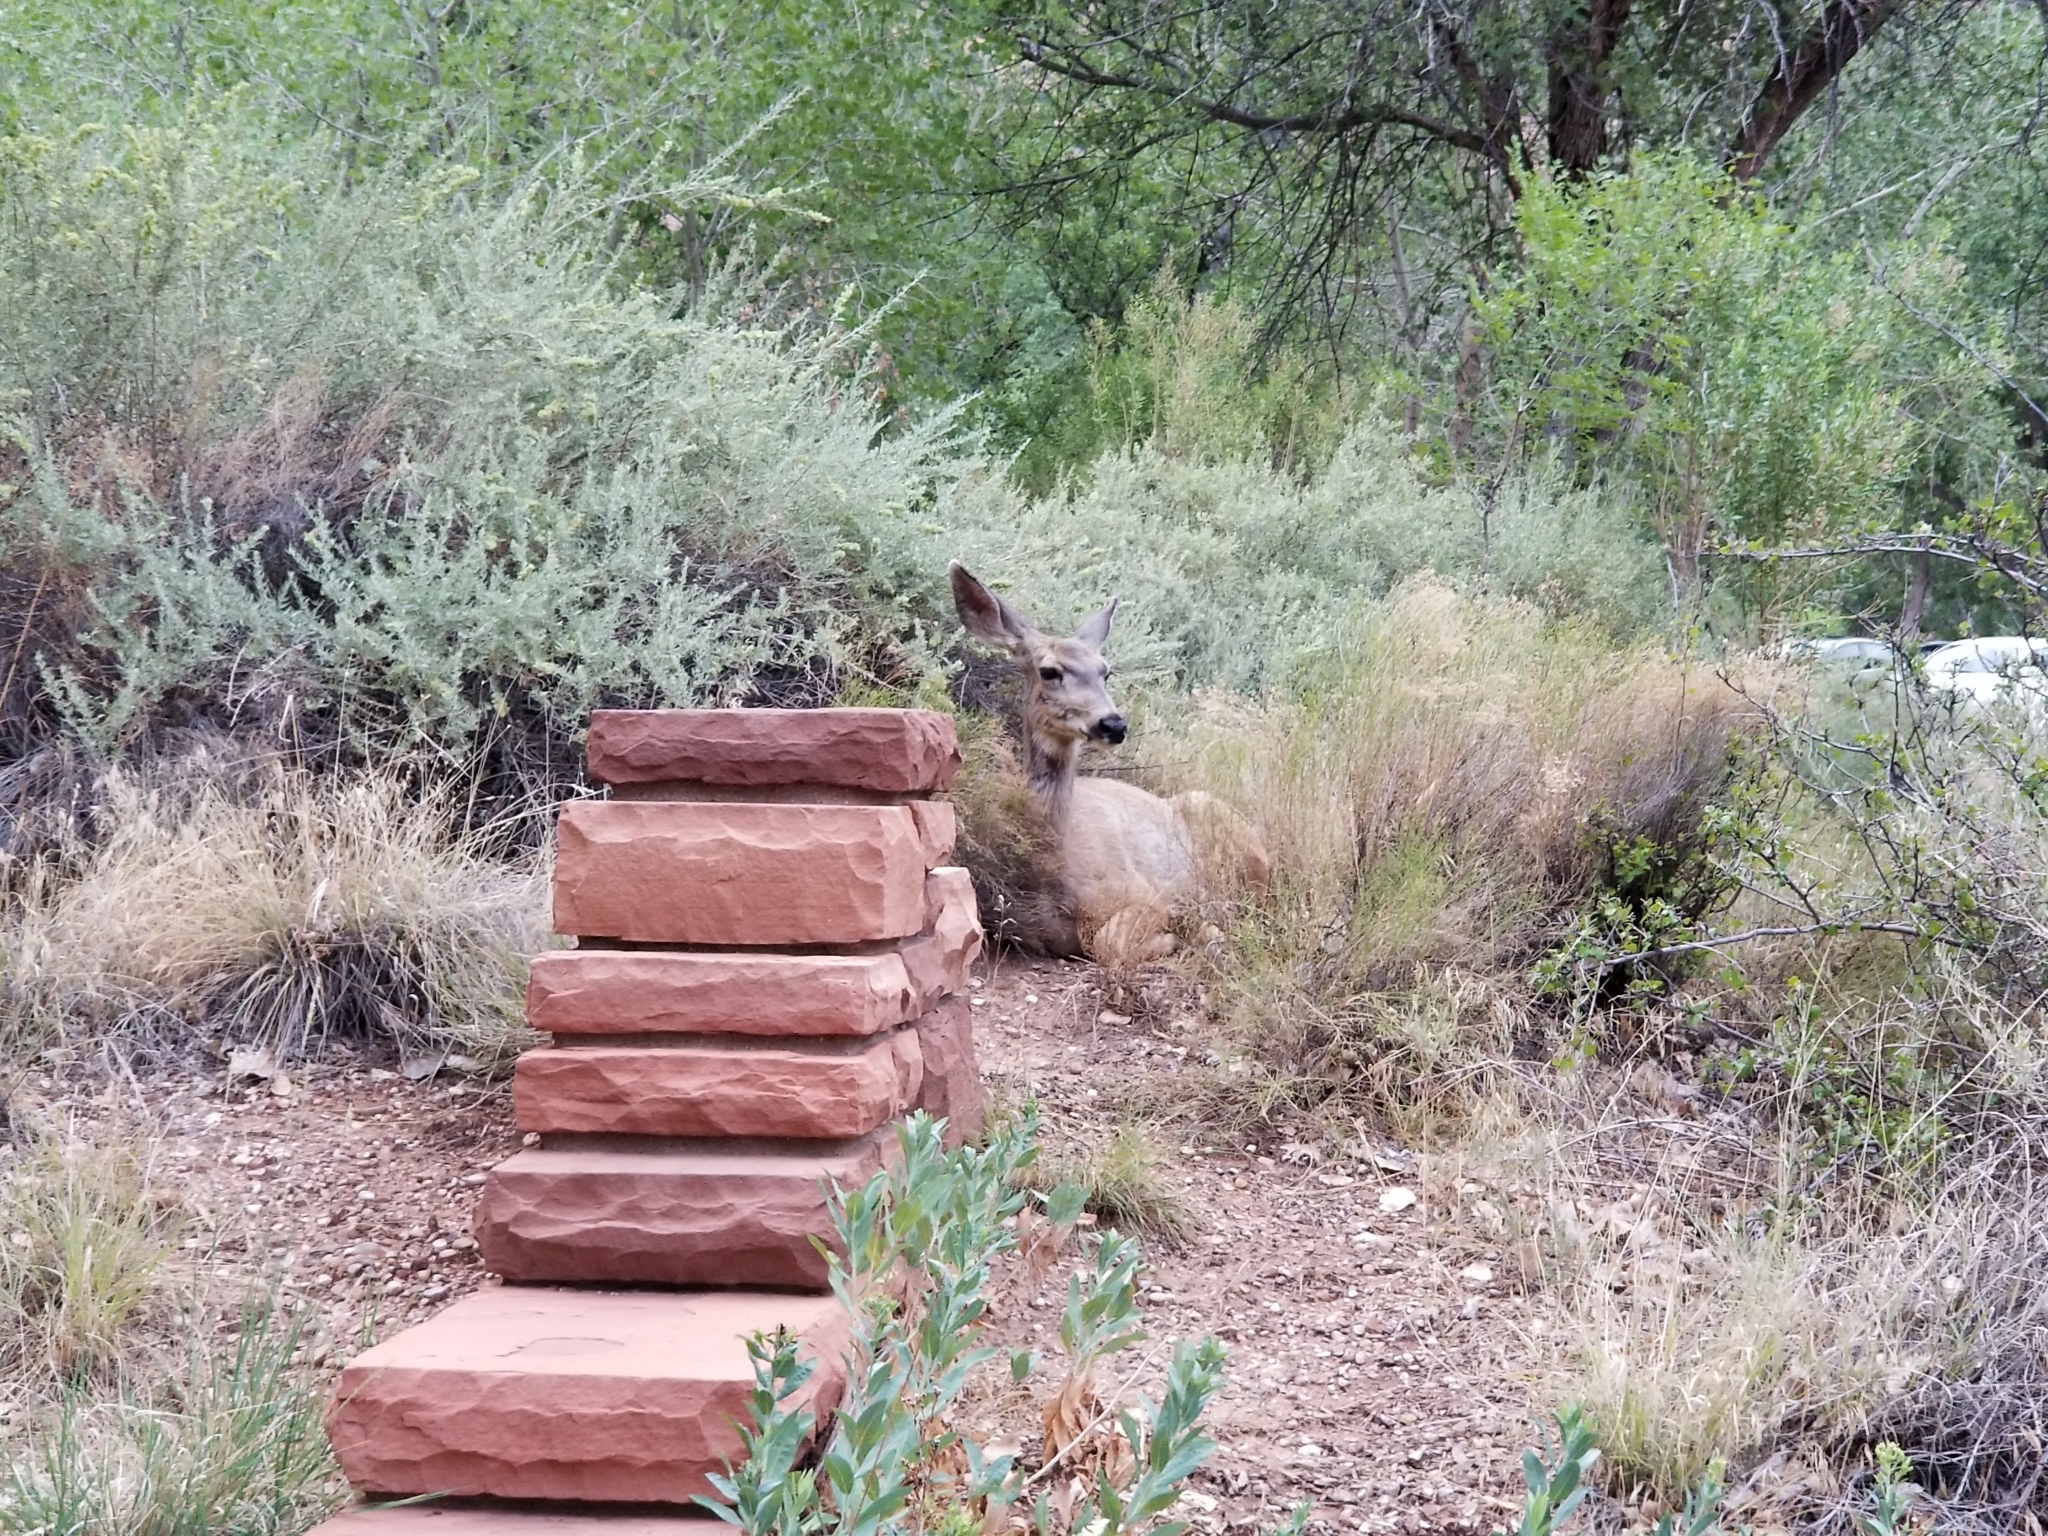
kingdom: Animalia
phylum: Chordata
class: Mammalia
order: Artiodactyla
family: Cervidae
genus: Odocoileus
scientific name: Odocoileus hemionus
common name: Mule deer
